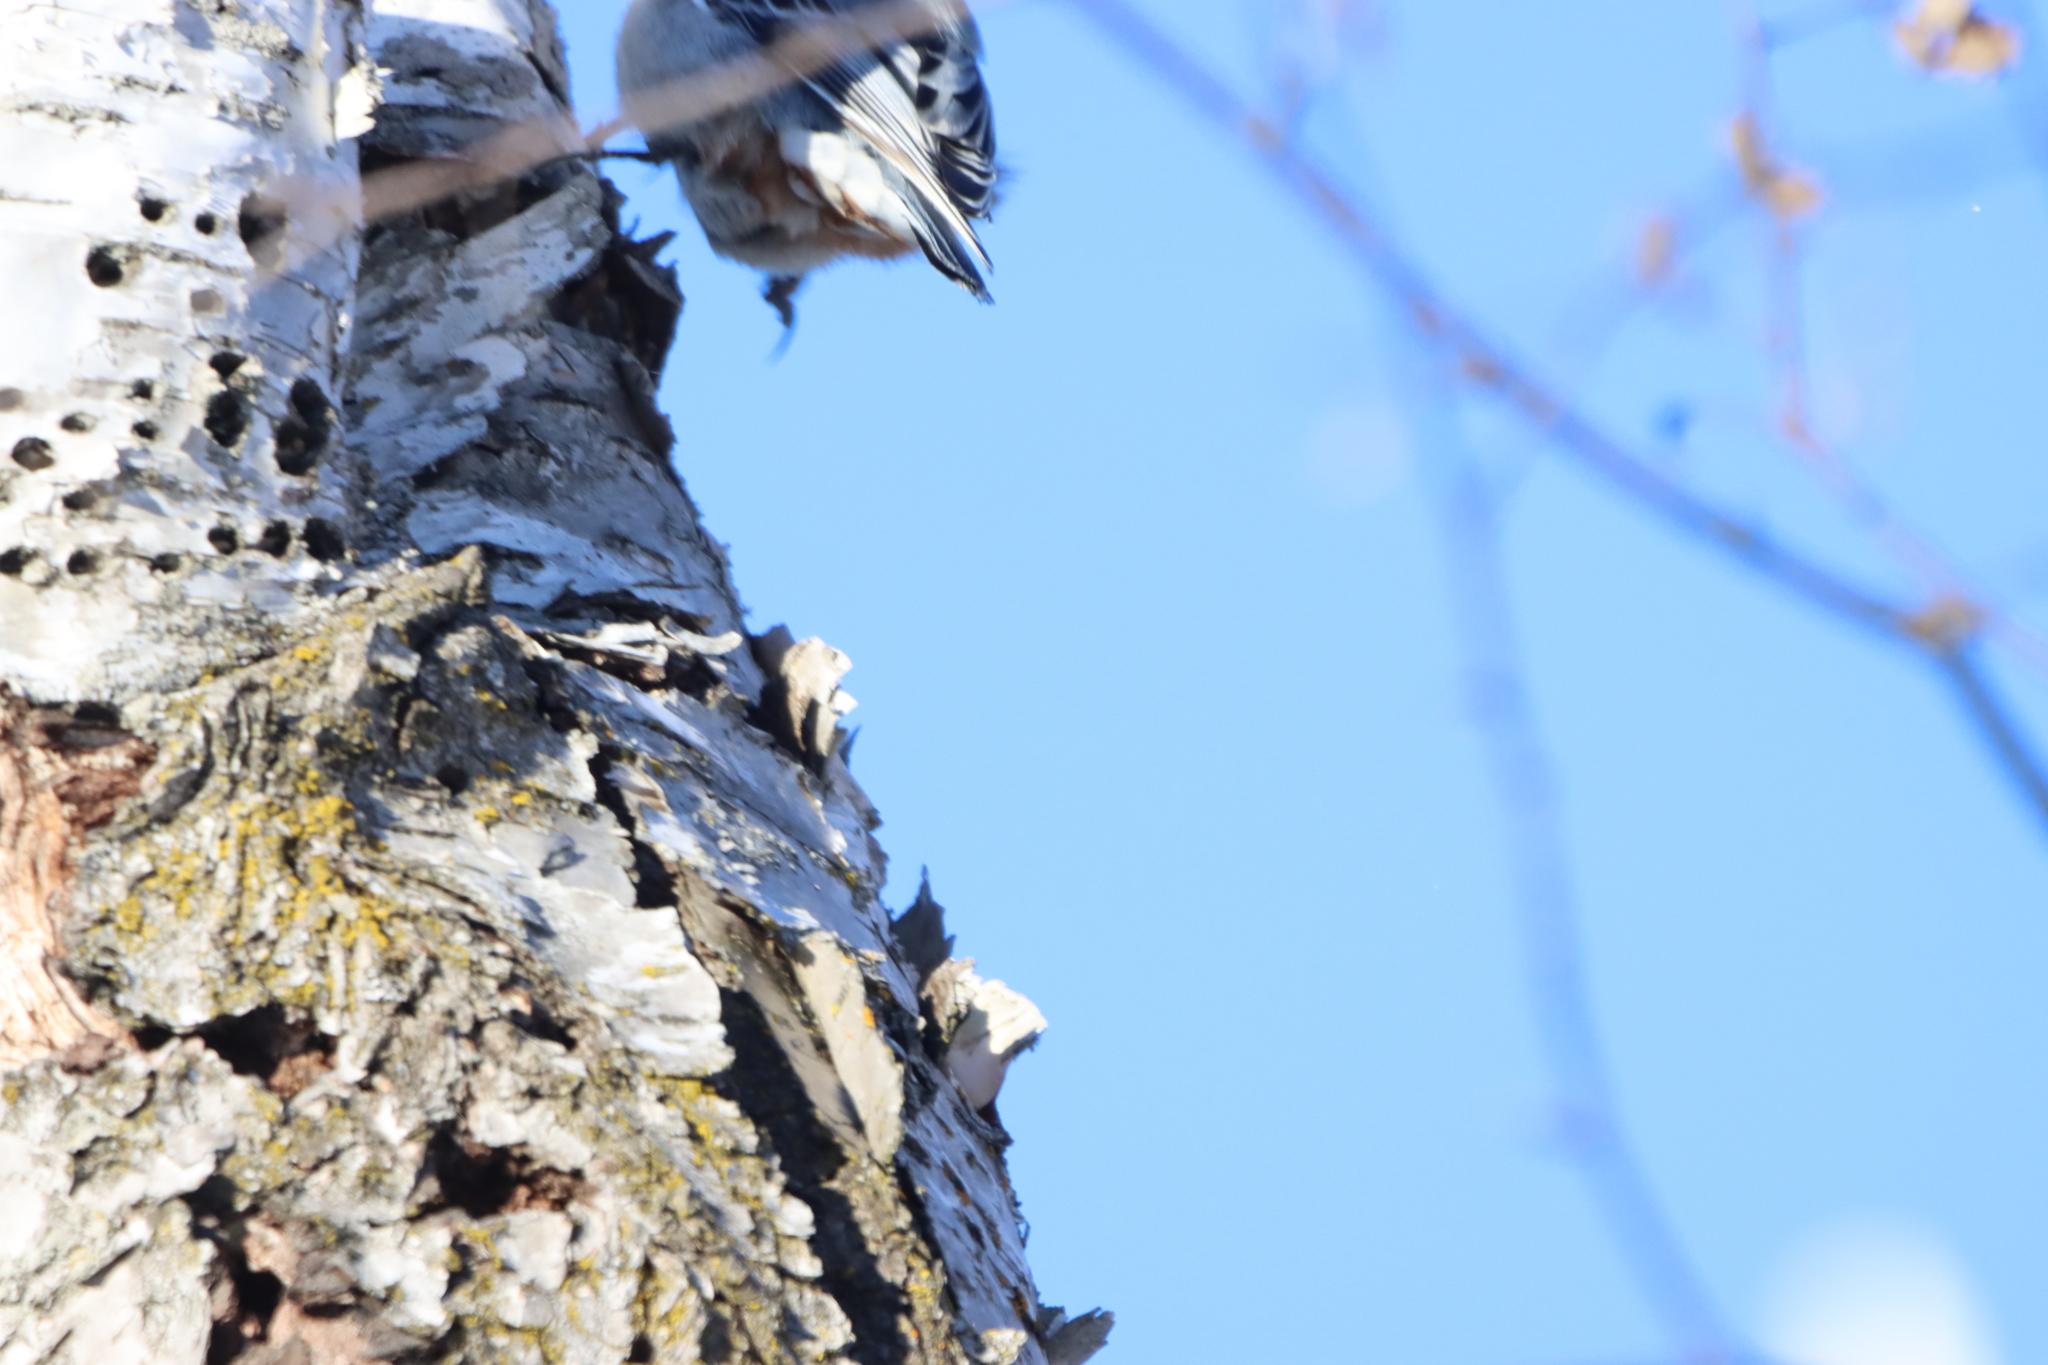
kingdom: Animalia
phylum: Chordata
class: Aves
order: Passeriformes
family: Sittidae
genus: Sitta
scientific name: Sitta carolinensis
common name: White-breasted nuthatch
